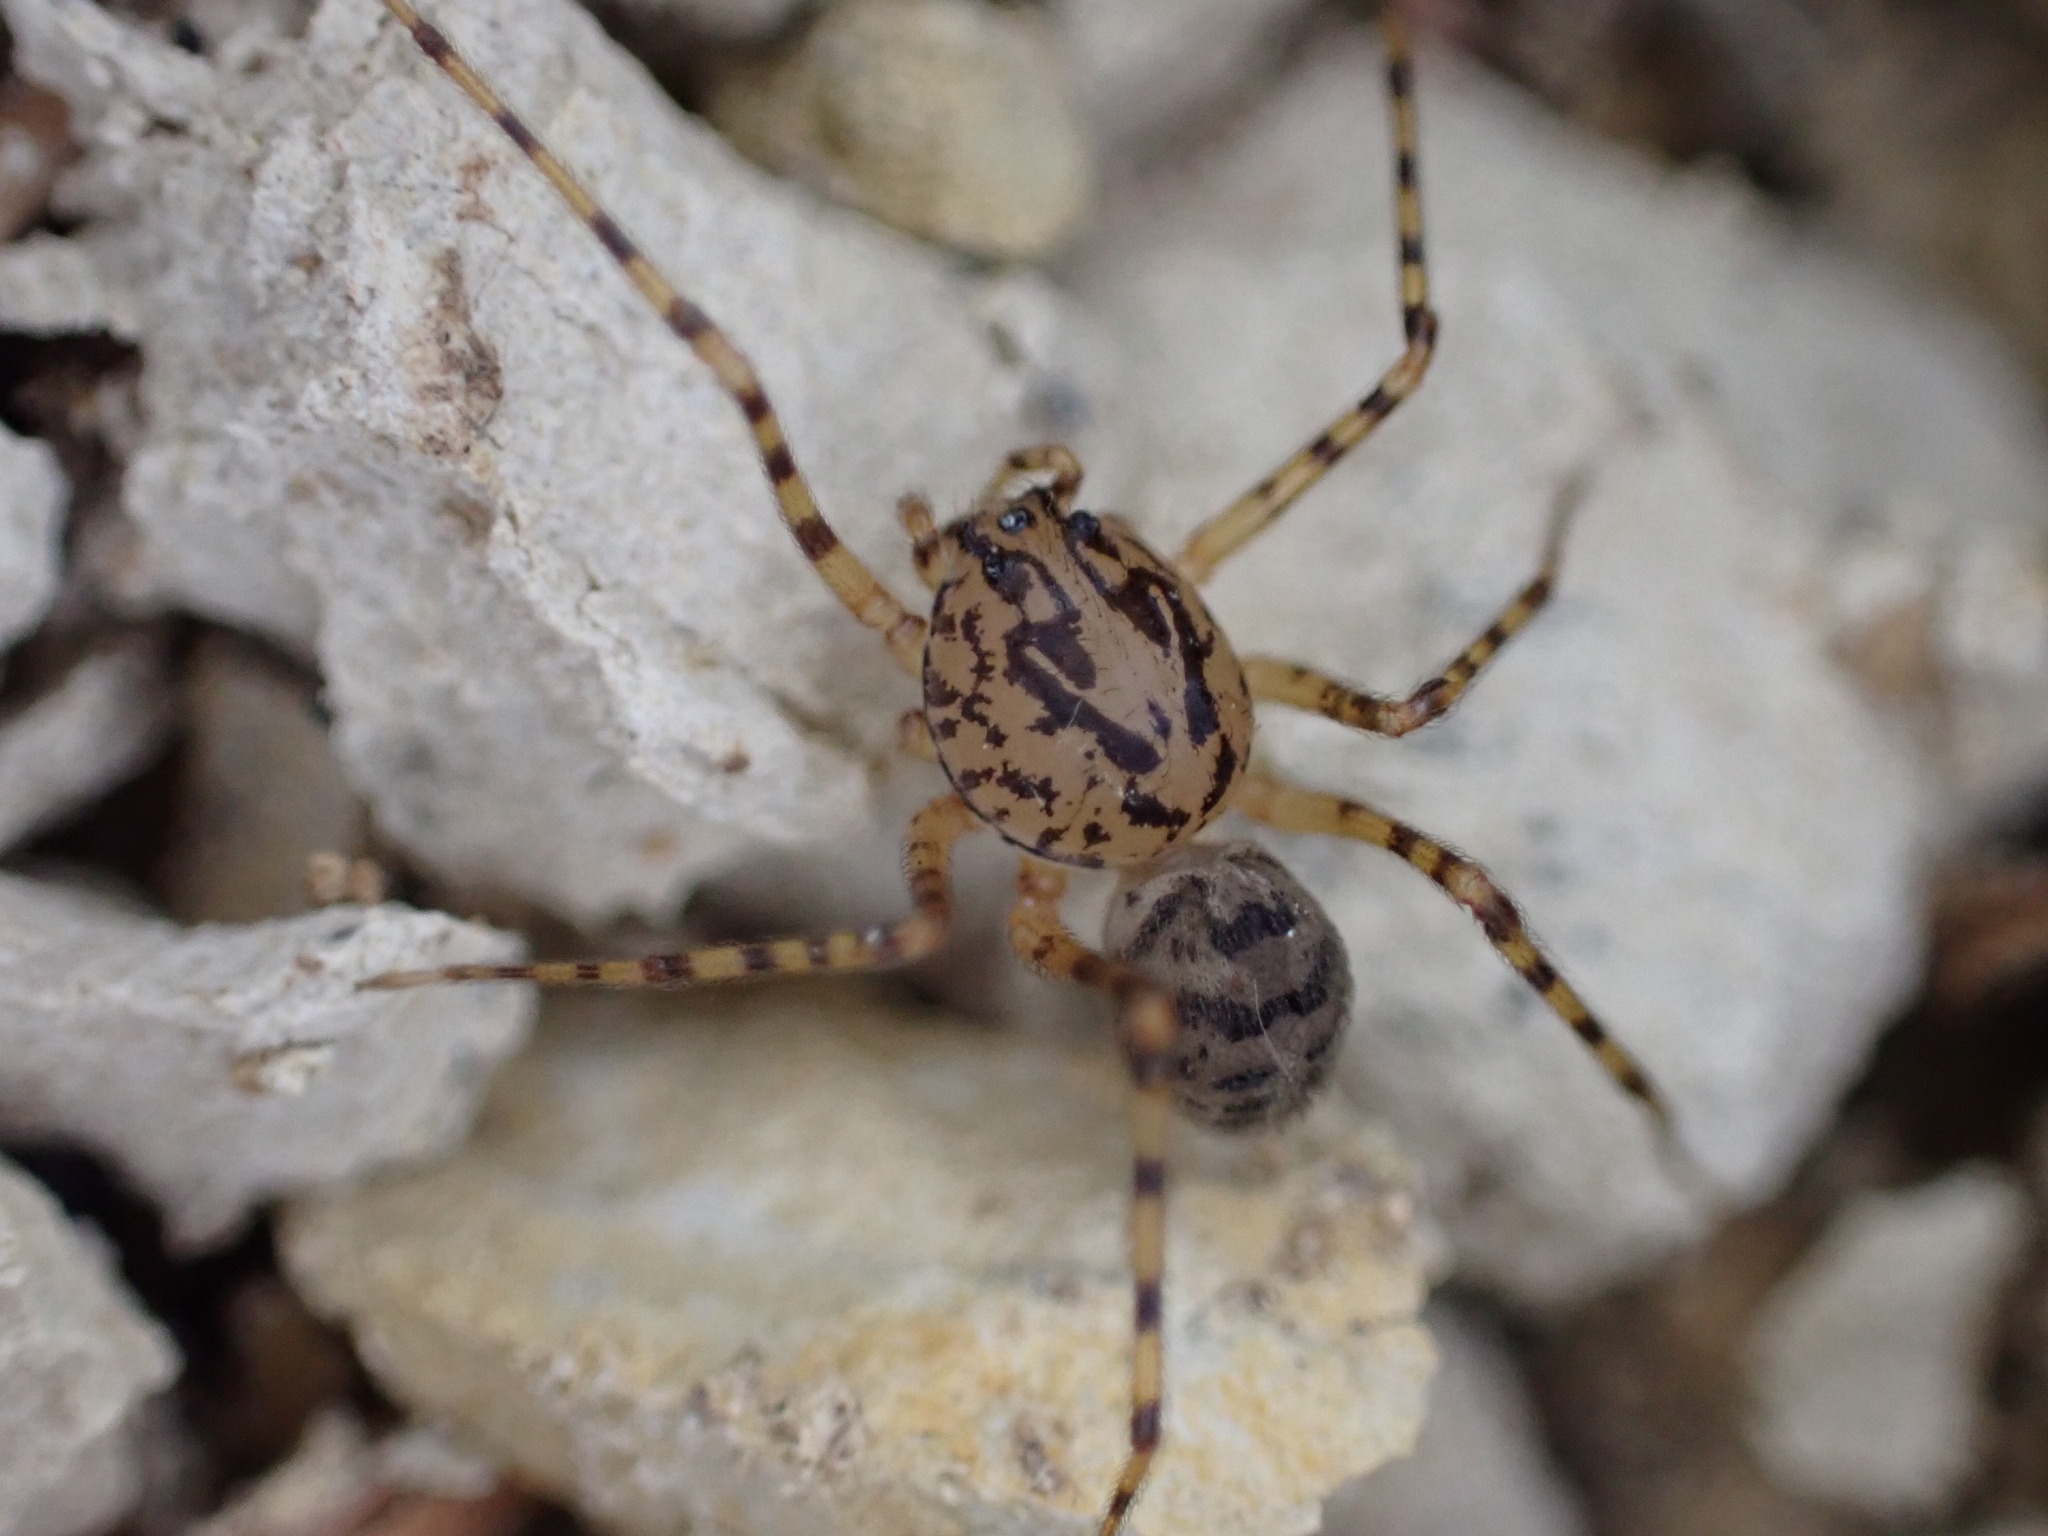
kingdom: Animalia
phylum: Arthropoda
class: Arachnida
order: Araneae
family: Scytodidae
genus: Scytodes
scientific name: Scytodes thoracica
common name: Spitting spider
